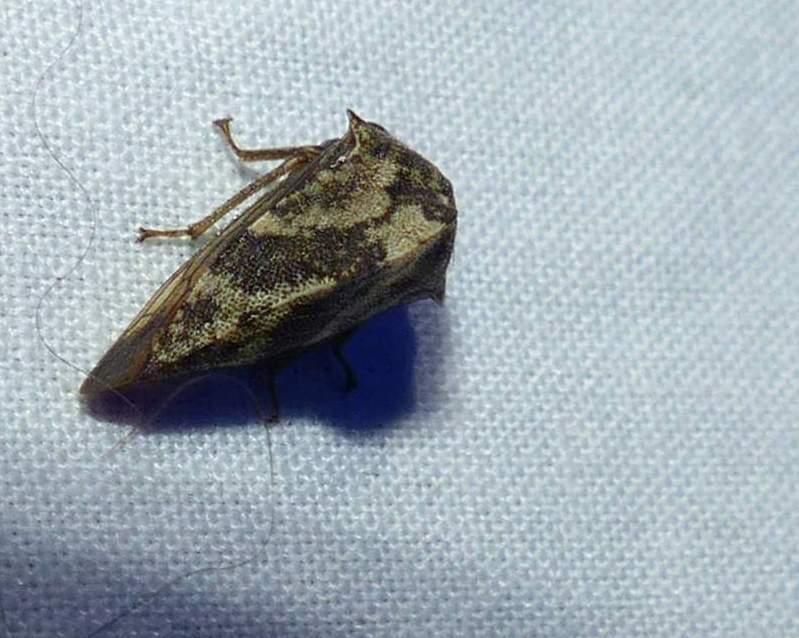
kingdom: Animalia
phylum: Arthropoda
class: Insecta
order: Hemiptera
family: Membracidae
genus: Telamona
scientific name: Telamona tristis
